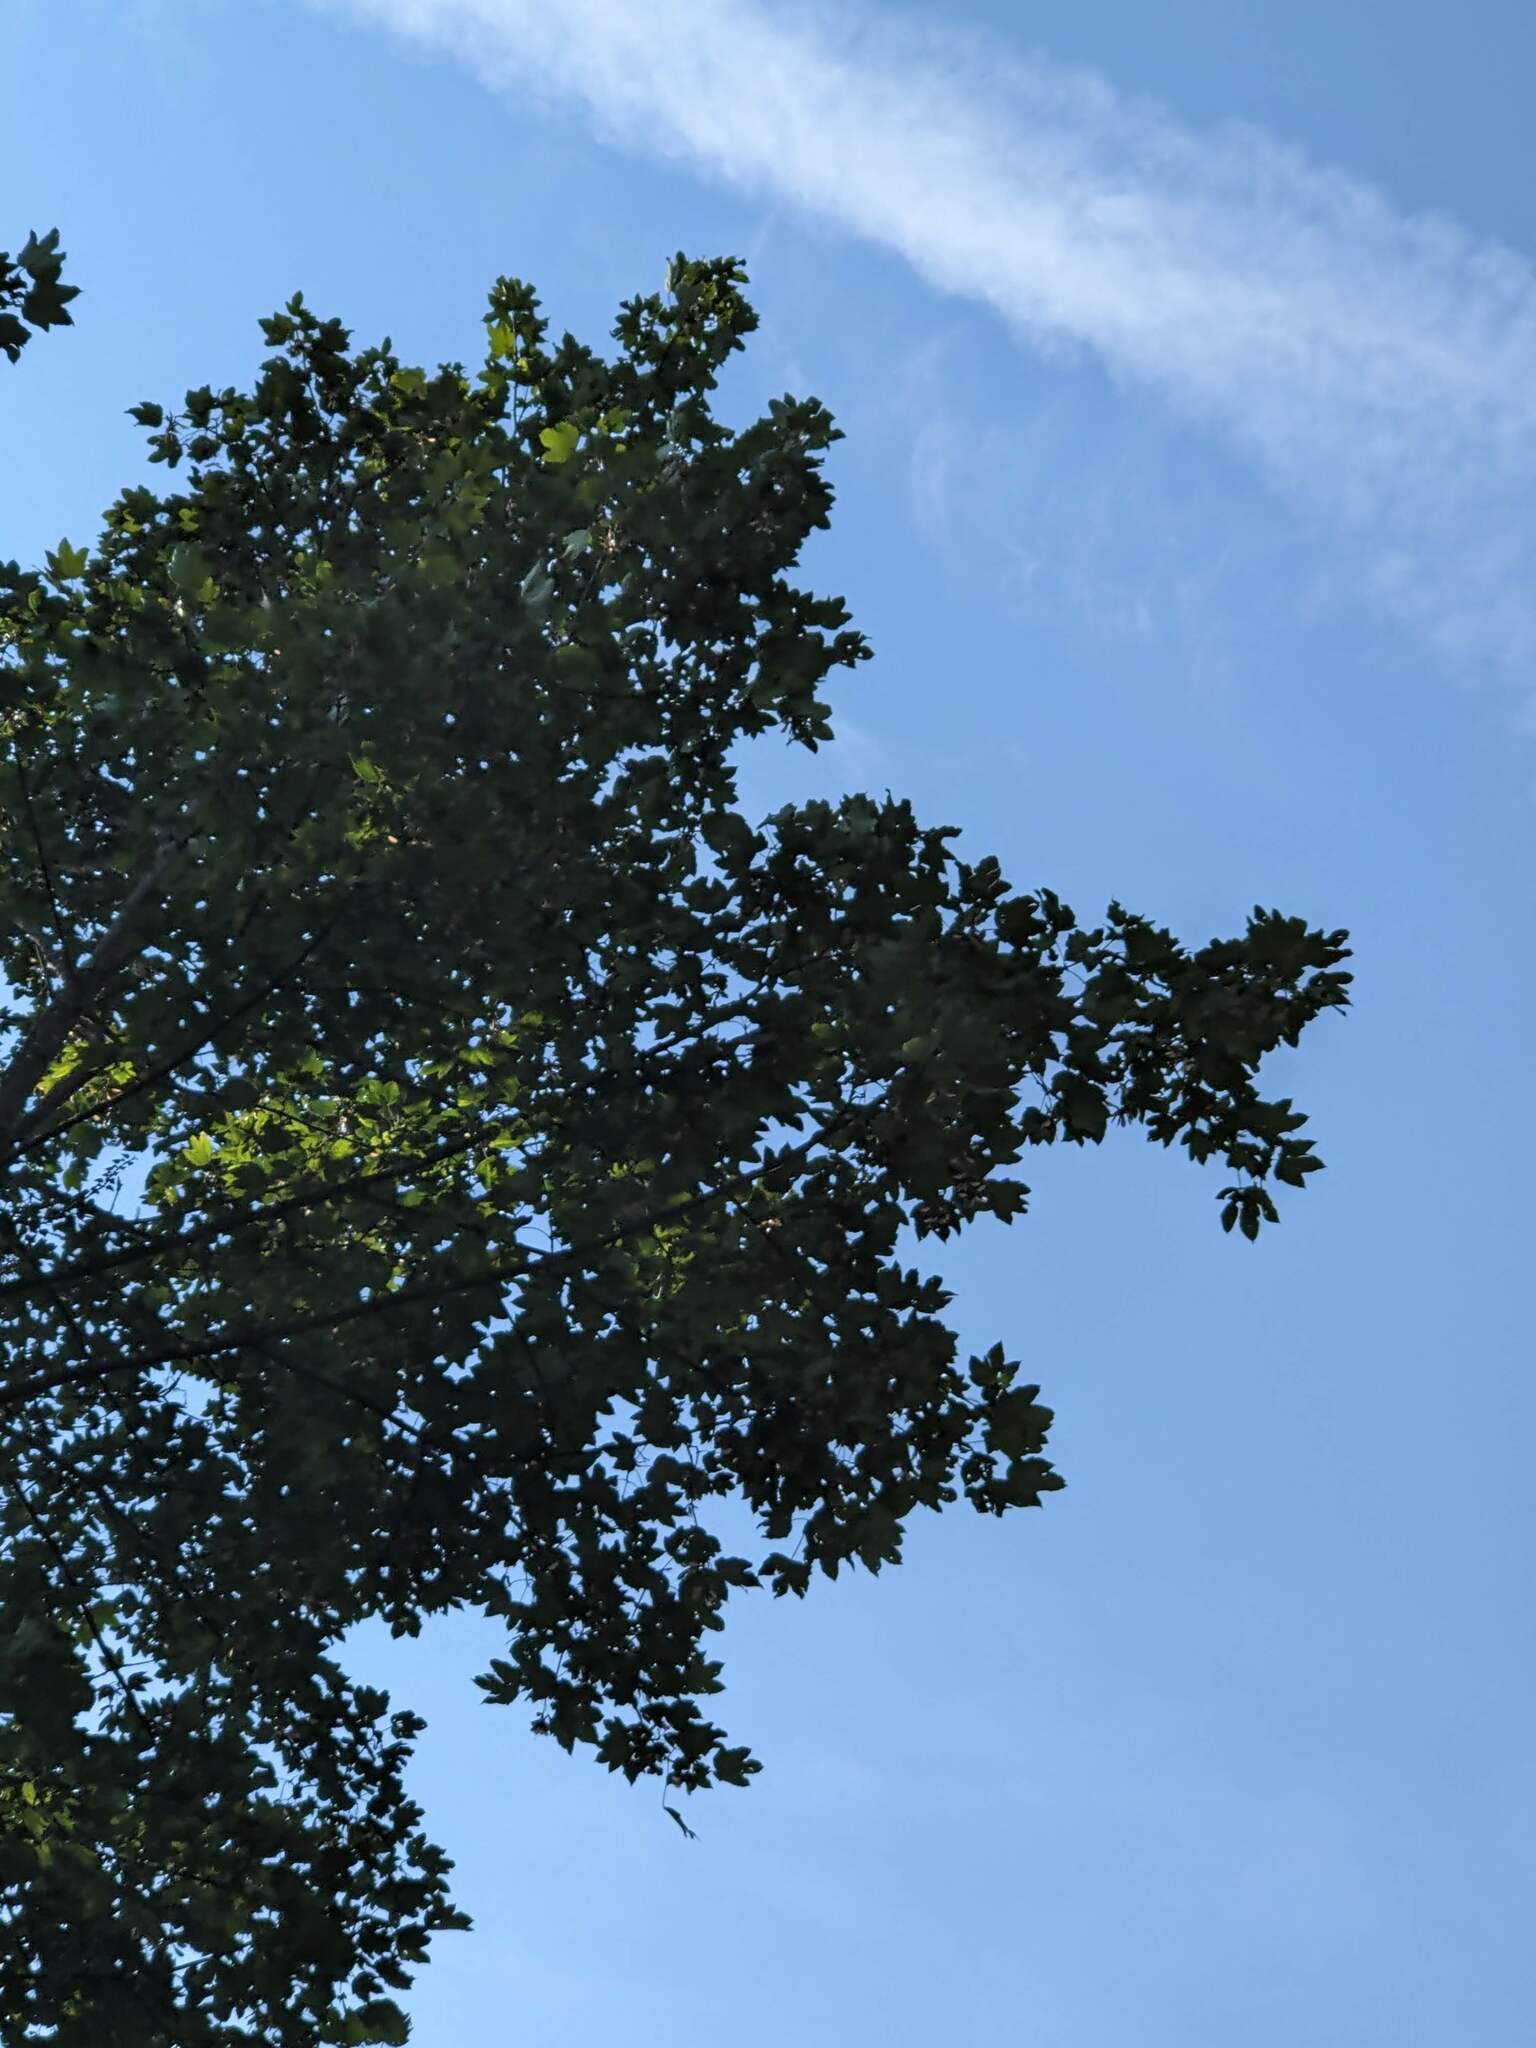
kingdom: Plantae
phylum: Tracheophyta
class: Magnoliopsida
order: Sapindales
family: Sapindaceae
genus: Acer
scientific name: Acer pseudoplatanus
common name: Sycamore
